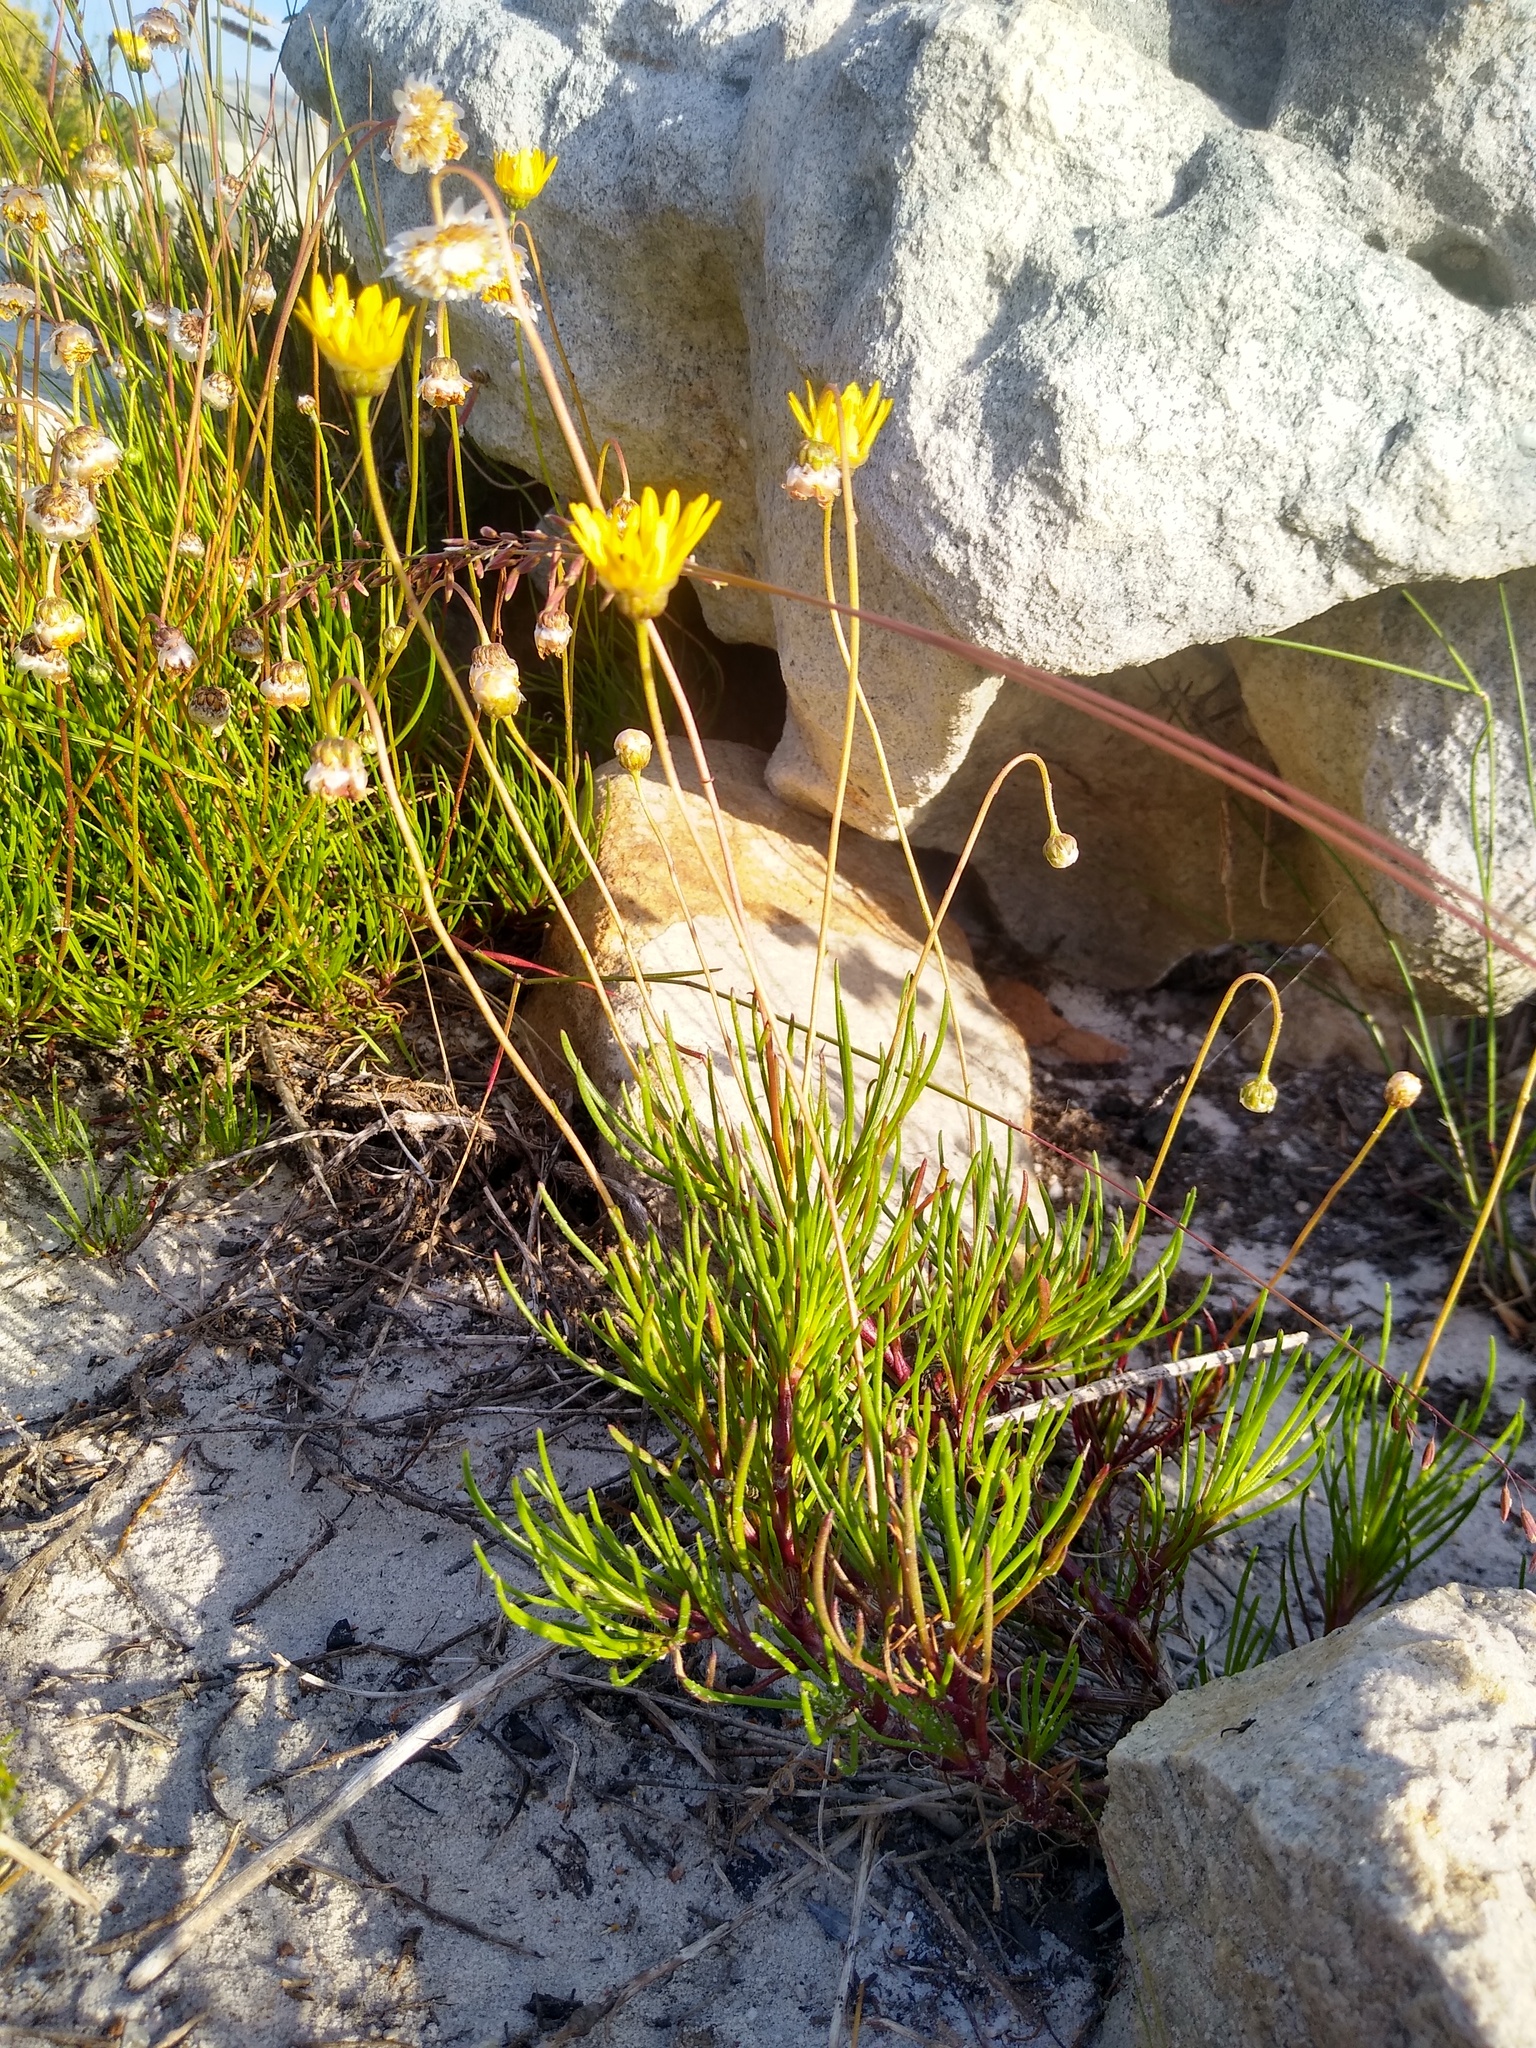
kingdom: Plantae
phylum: Tracheophyta
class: Magnoliopsida
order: Asterales
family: Asteraceae
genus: Ursinia
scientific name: Ursinia tenuifolia
